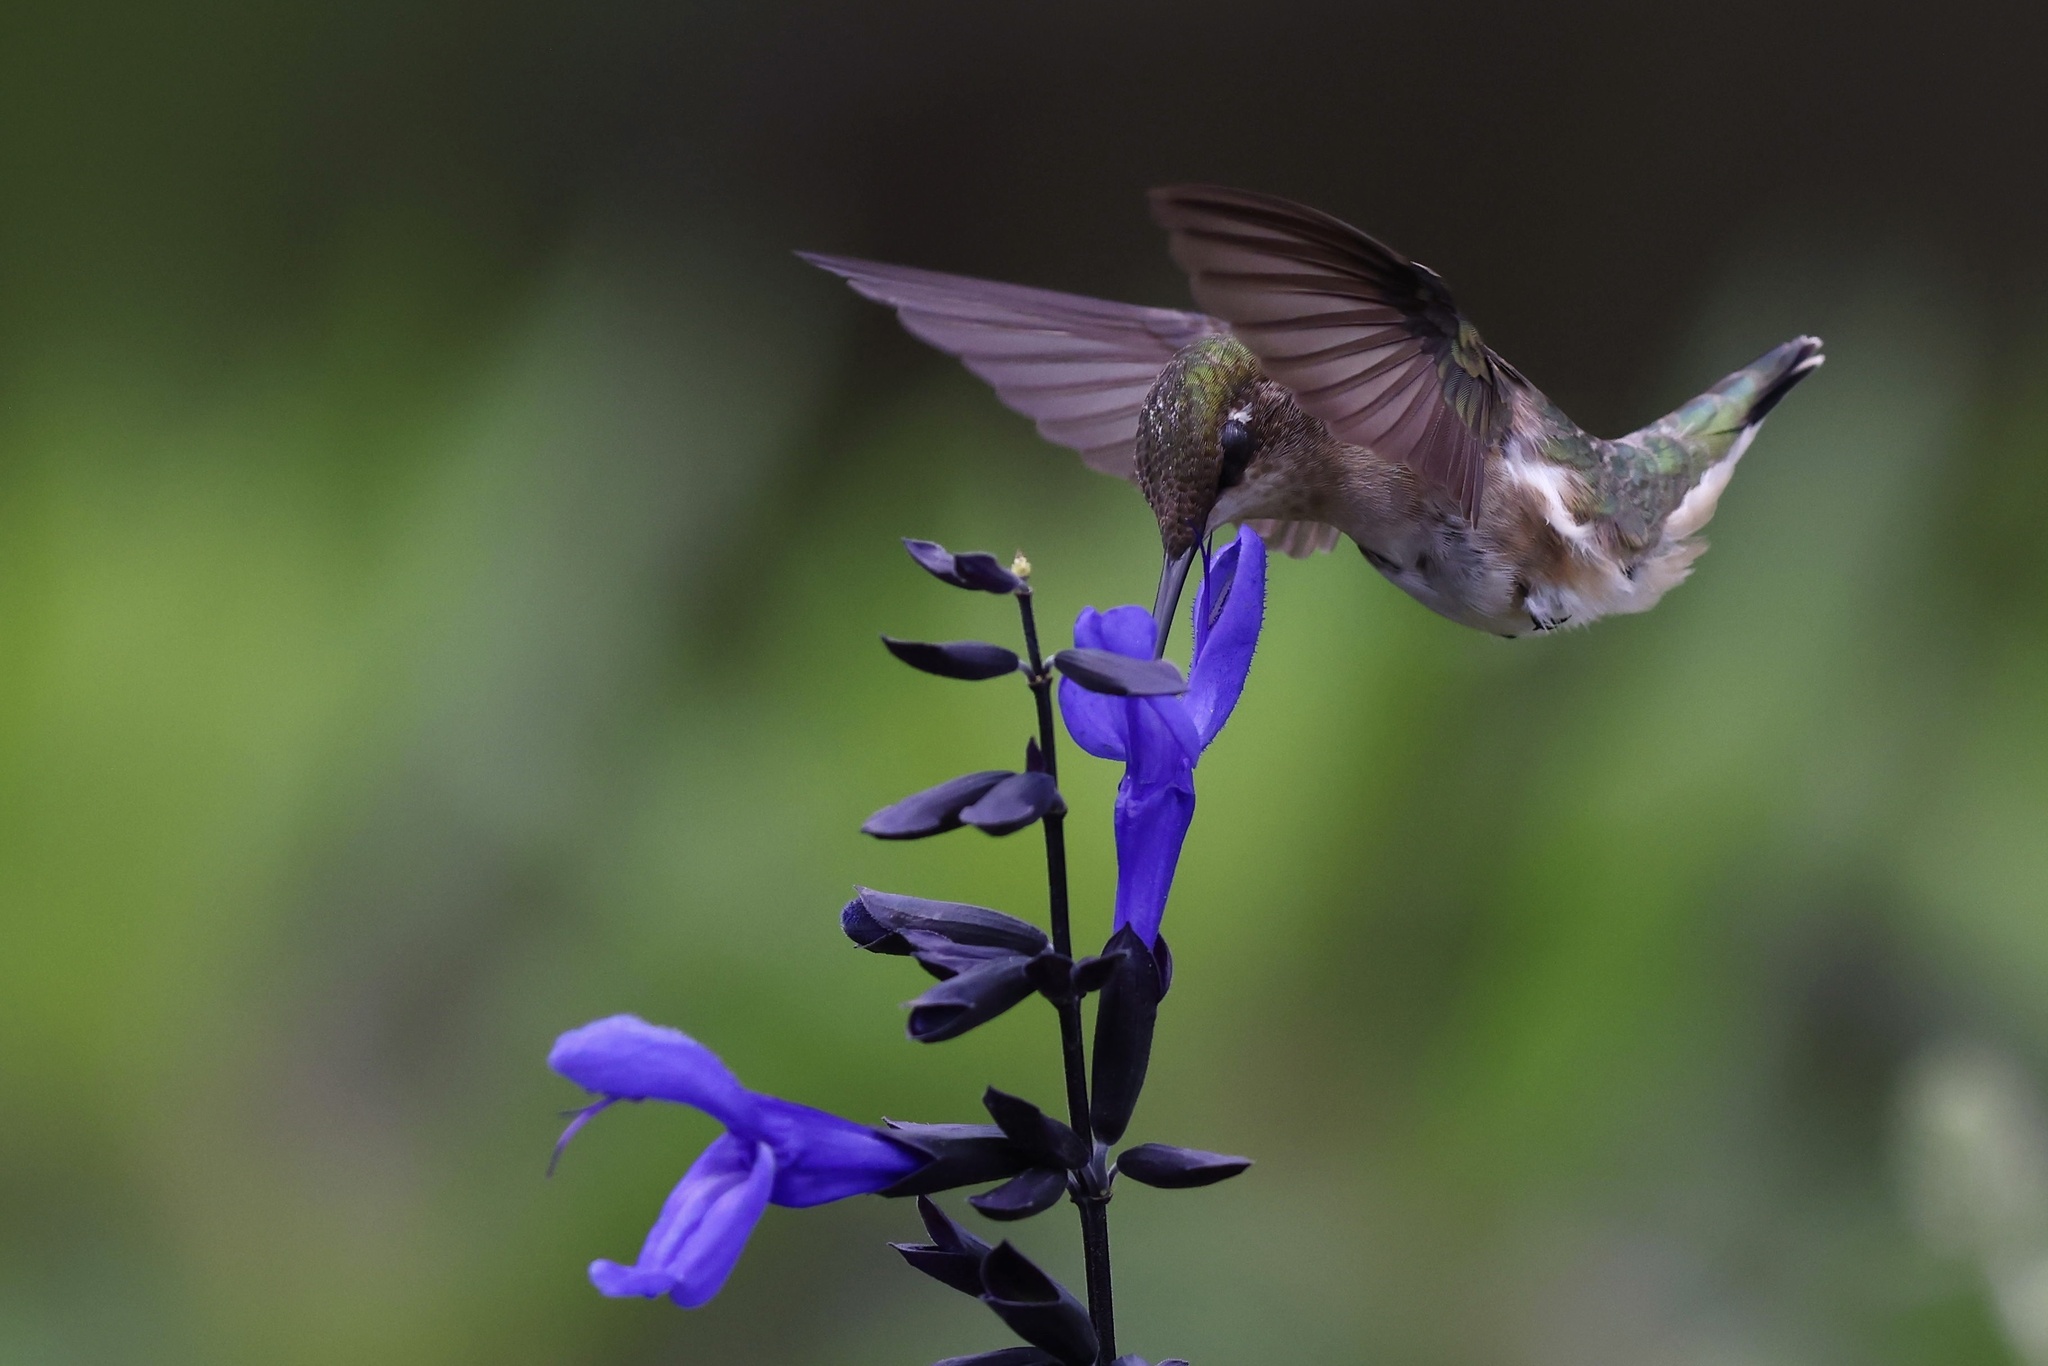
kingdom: Animalia
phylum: Chordata
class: Aves
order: Apodiformes
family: Trochilidae
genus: Archilochus
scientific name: Archilochus colubris
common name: Ruby-throated hummingbird
